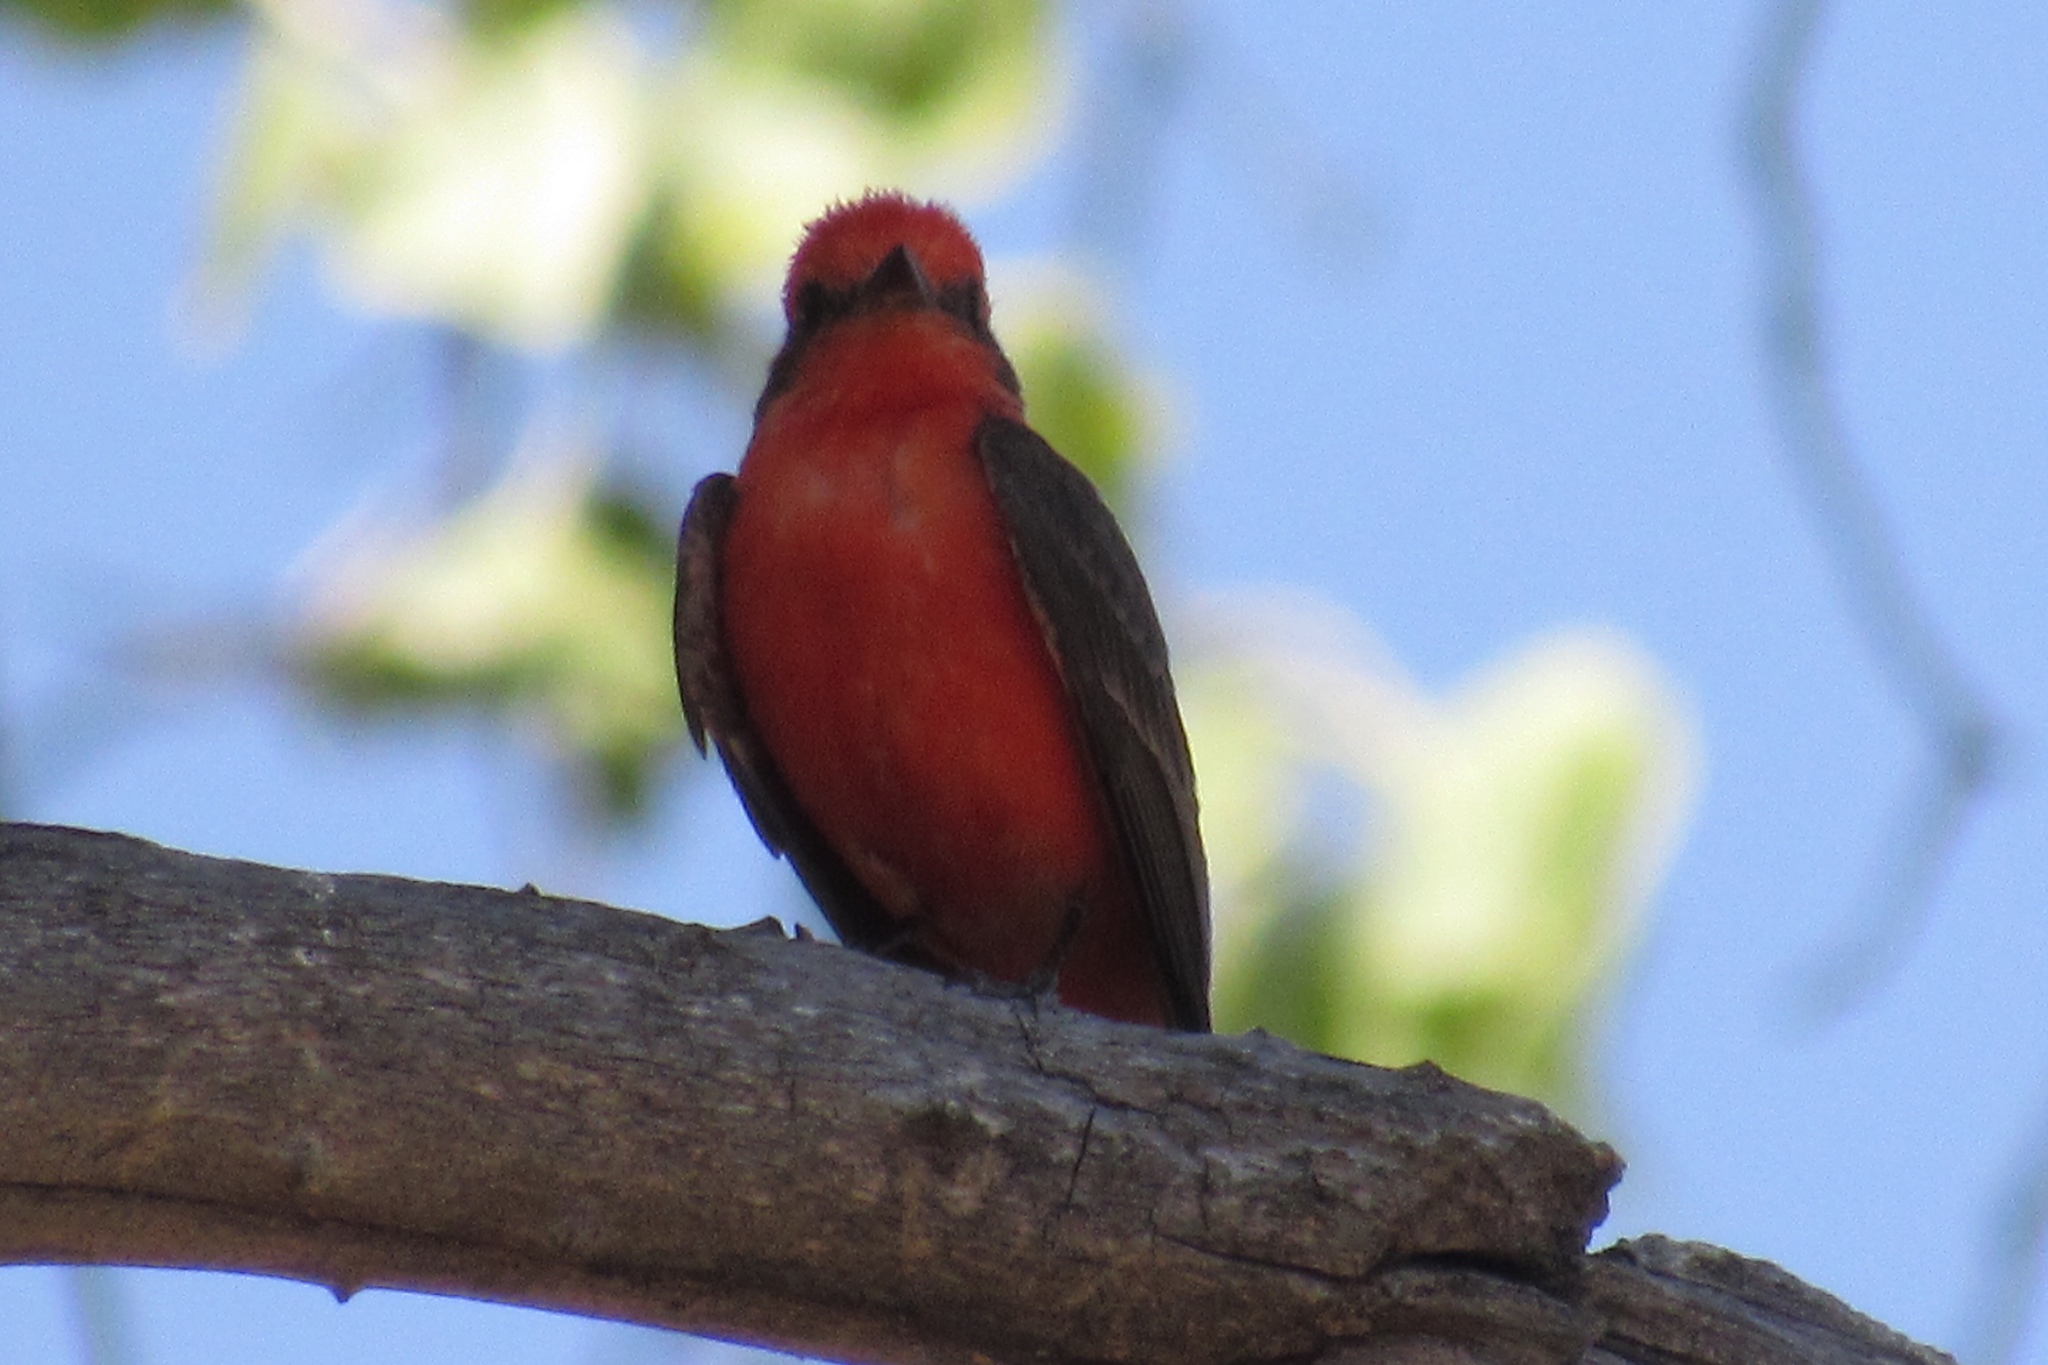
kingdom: Animalia
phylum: Chordata
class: Aves
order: Passeriformes
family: Tyrannidae
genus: Pyrocephalus
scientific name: Pyrocephalus rubinus
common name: Vermilion flycatcher
